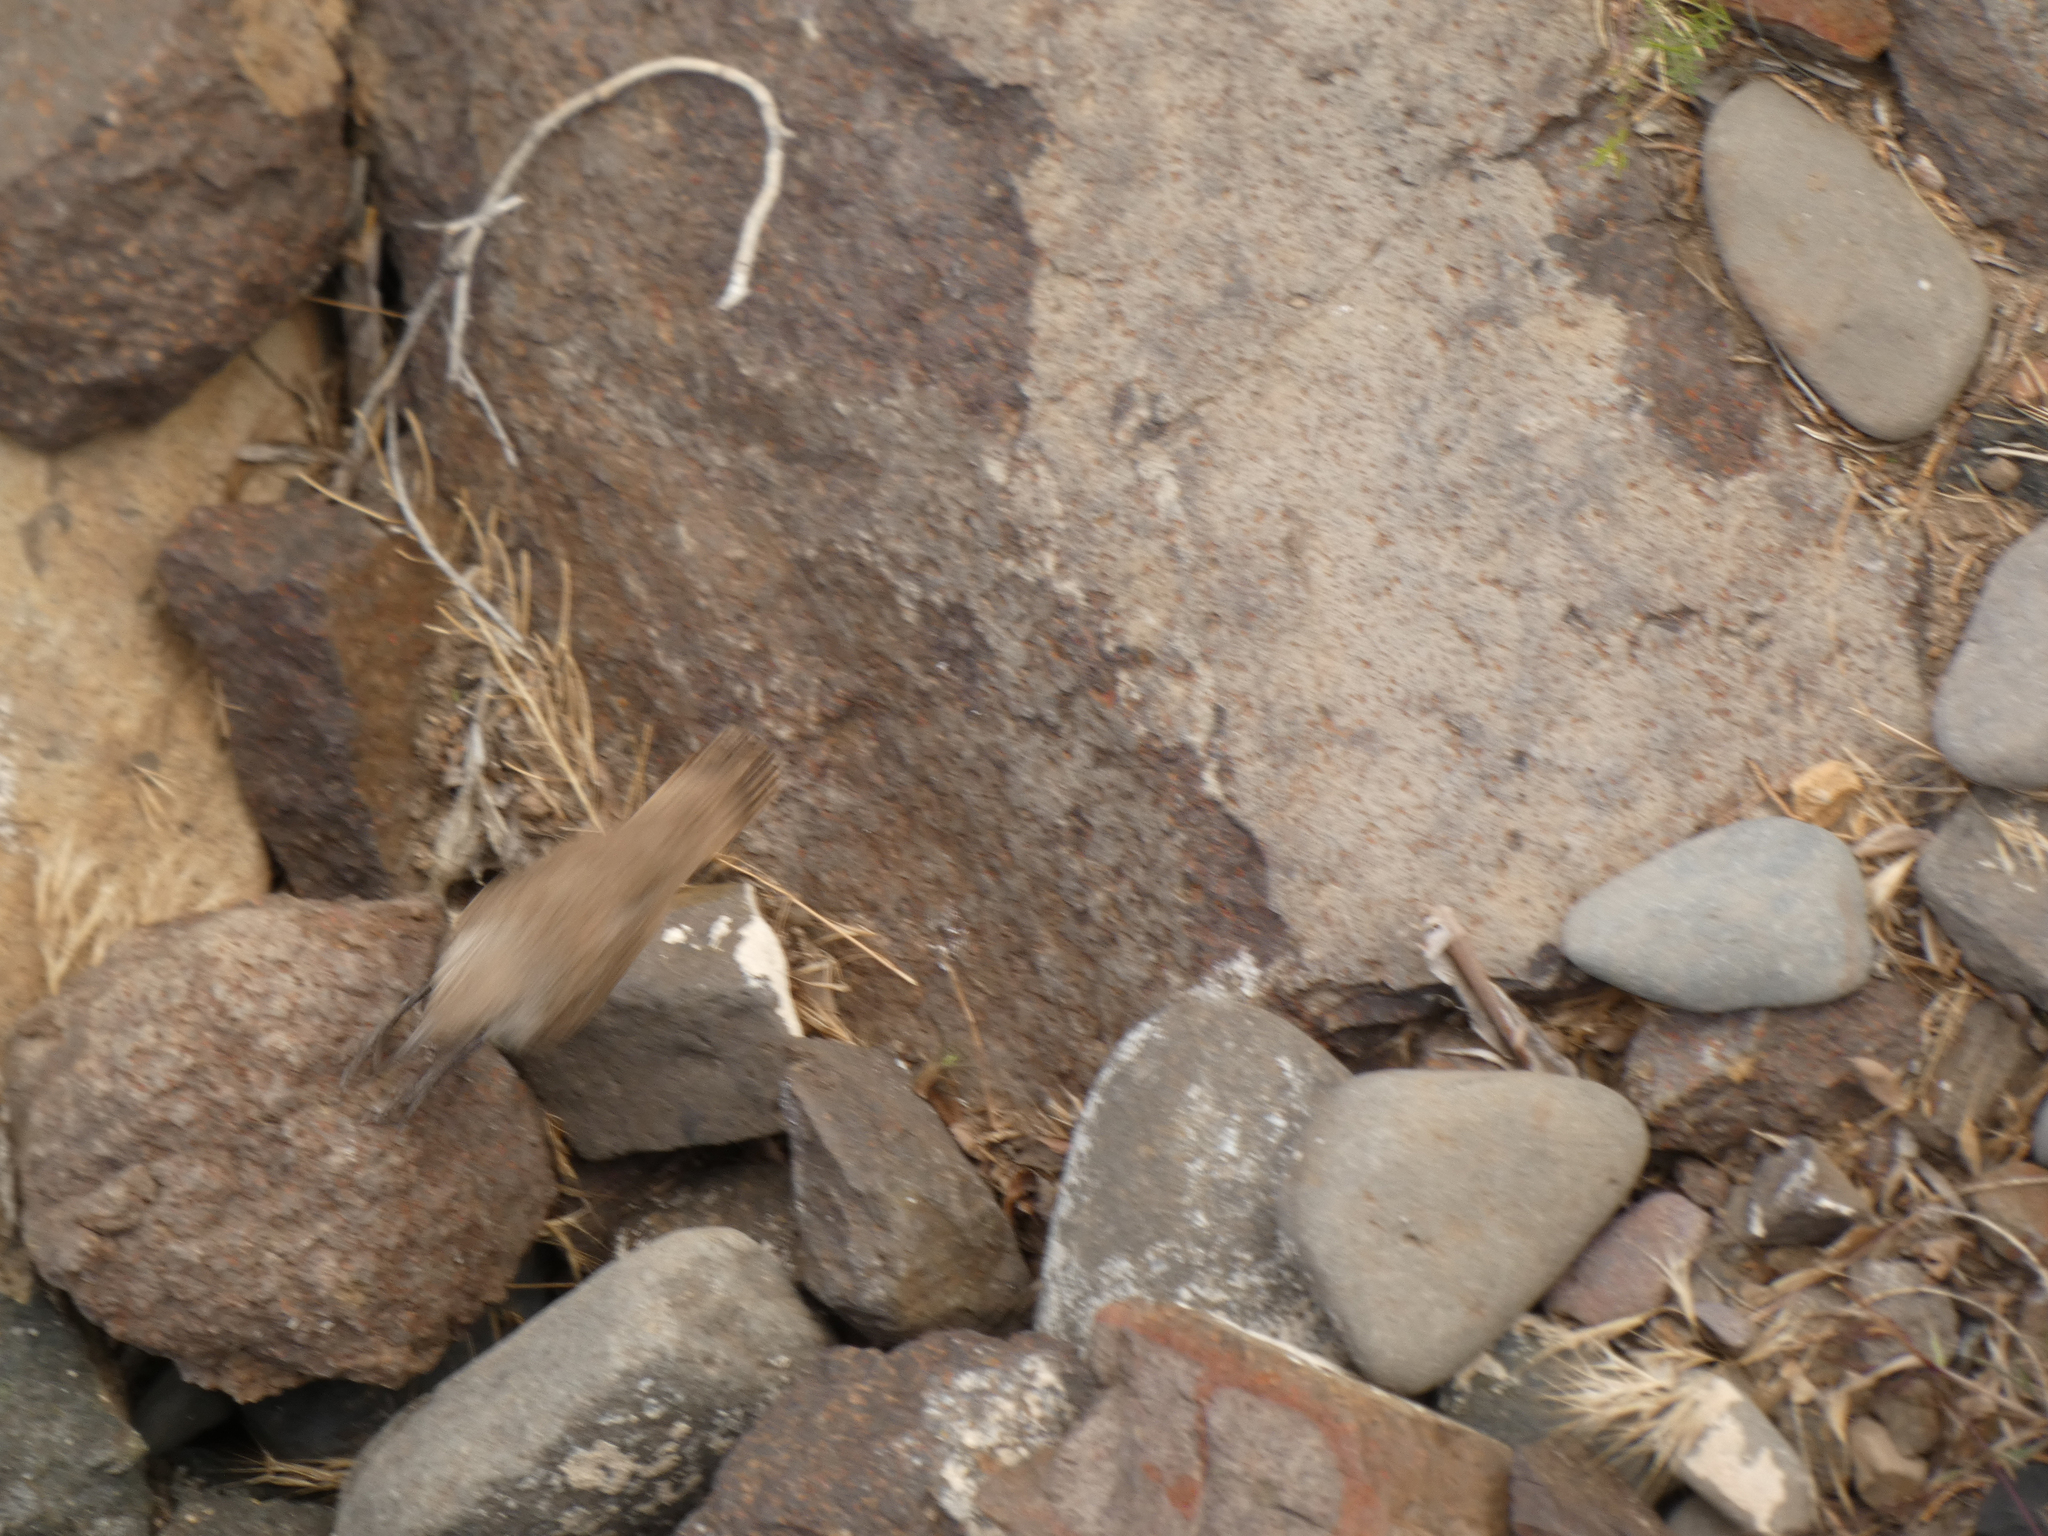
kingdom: Animalia
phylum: Chordata
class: Aves
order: Passeriformes
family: Troglodytidae
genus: Salpinctes
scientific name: Salpinctes obsoletus
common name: Rock wren
